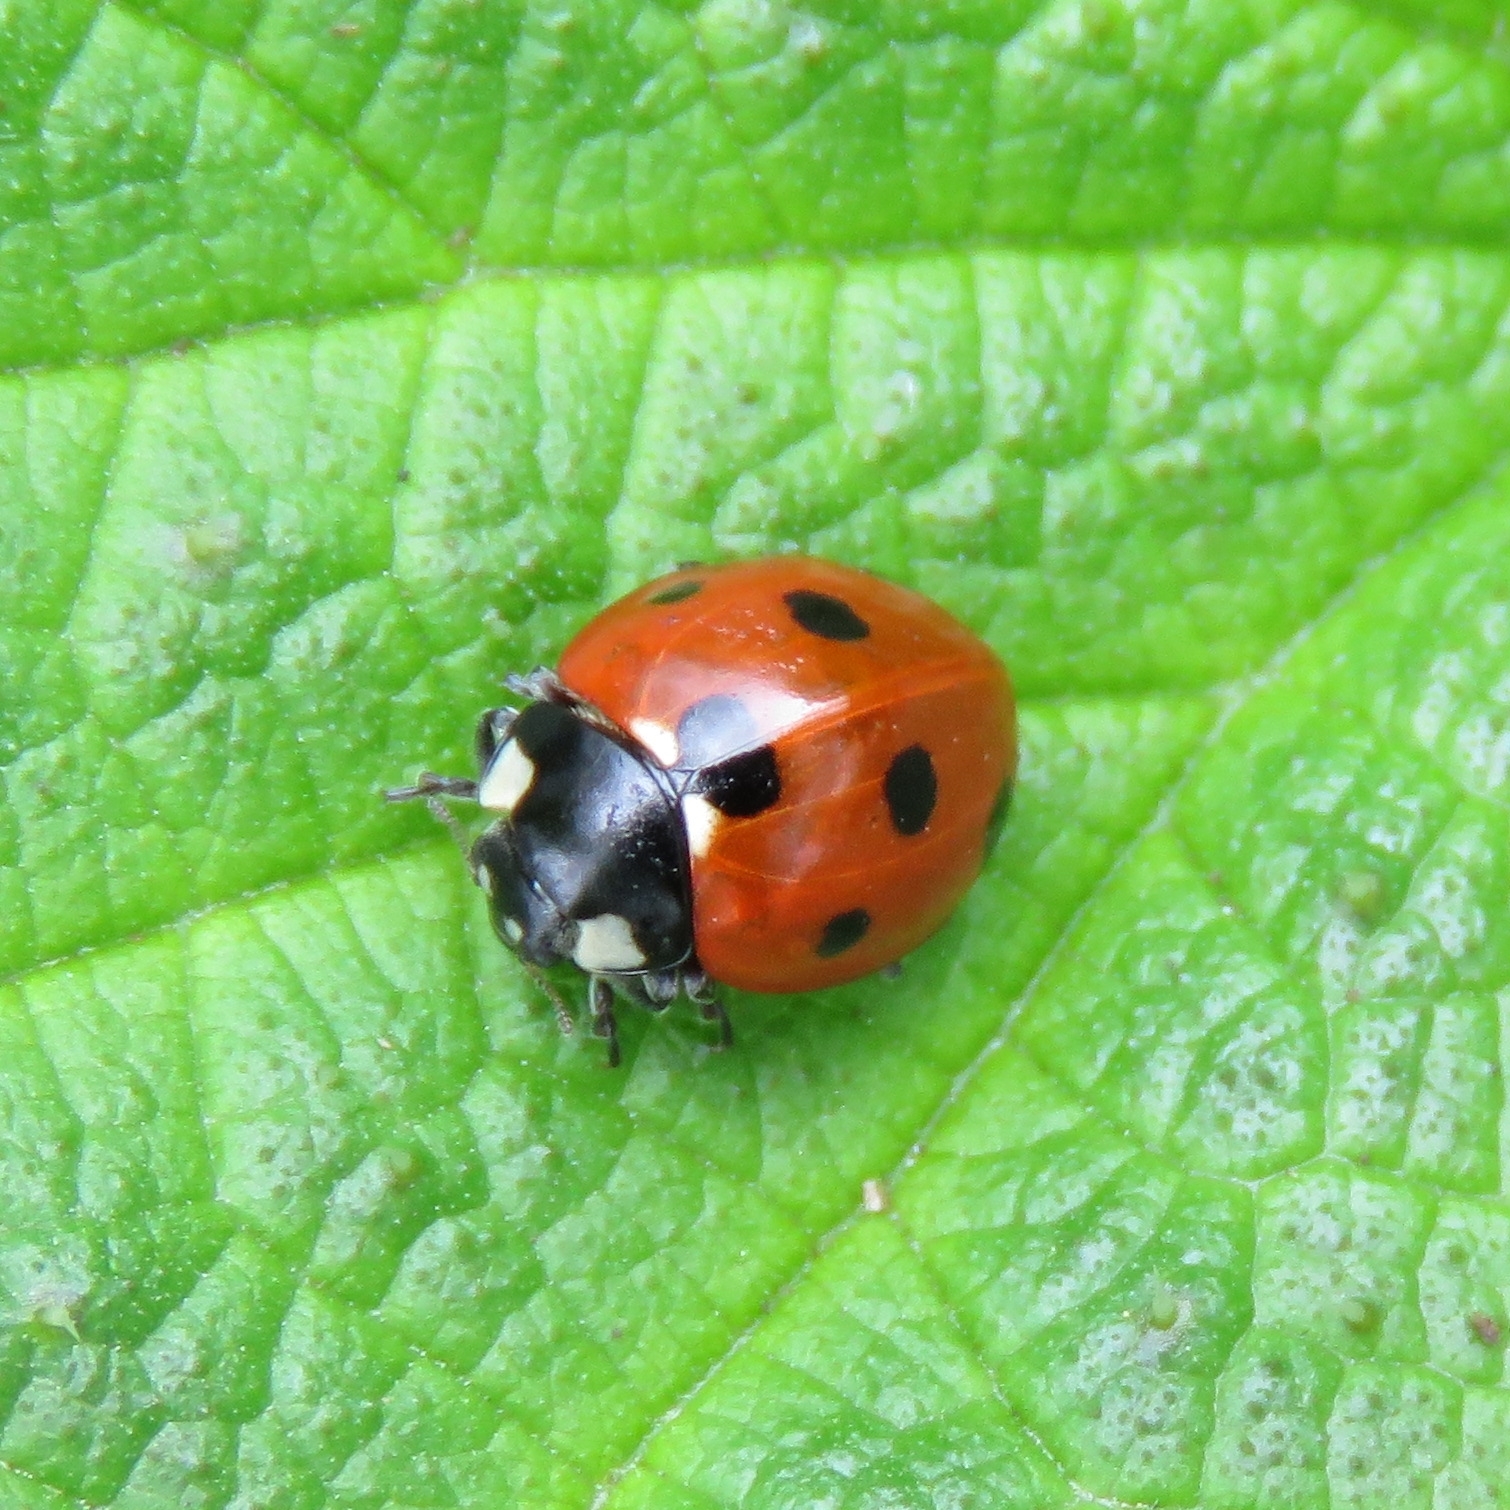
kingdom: Animalia
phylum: Arthropoda
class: Insecta
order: Coleoptera
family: Coccinellidae
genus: Coccinella
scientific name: Coccinella septempunctata
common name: Sevenspotted lady beetle
